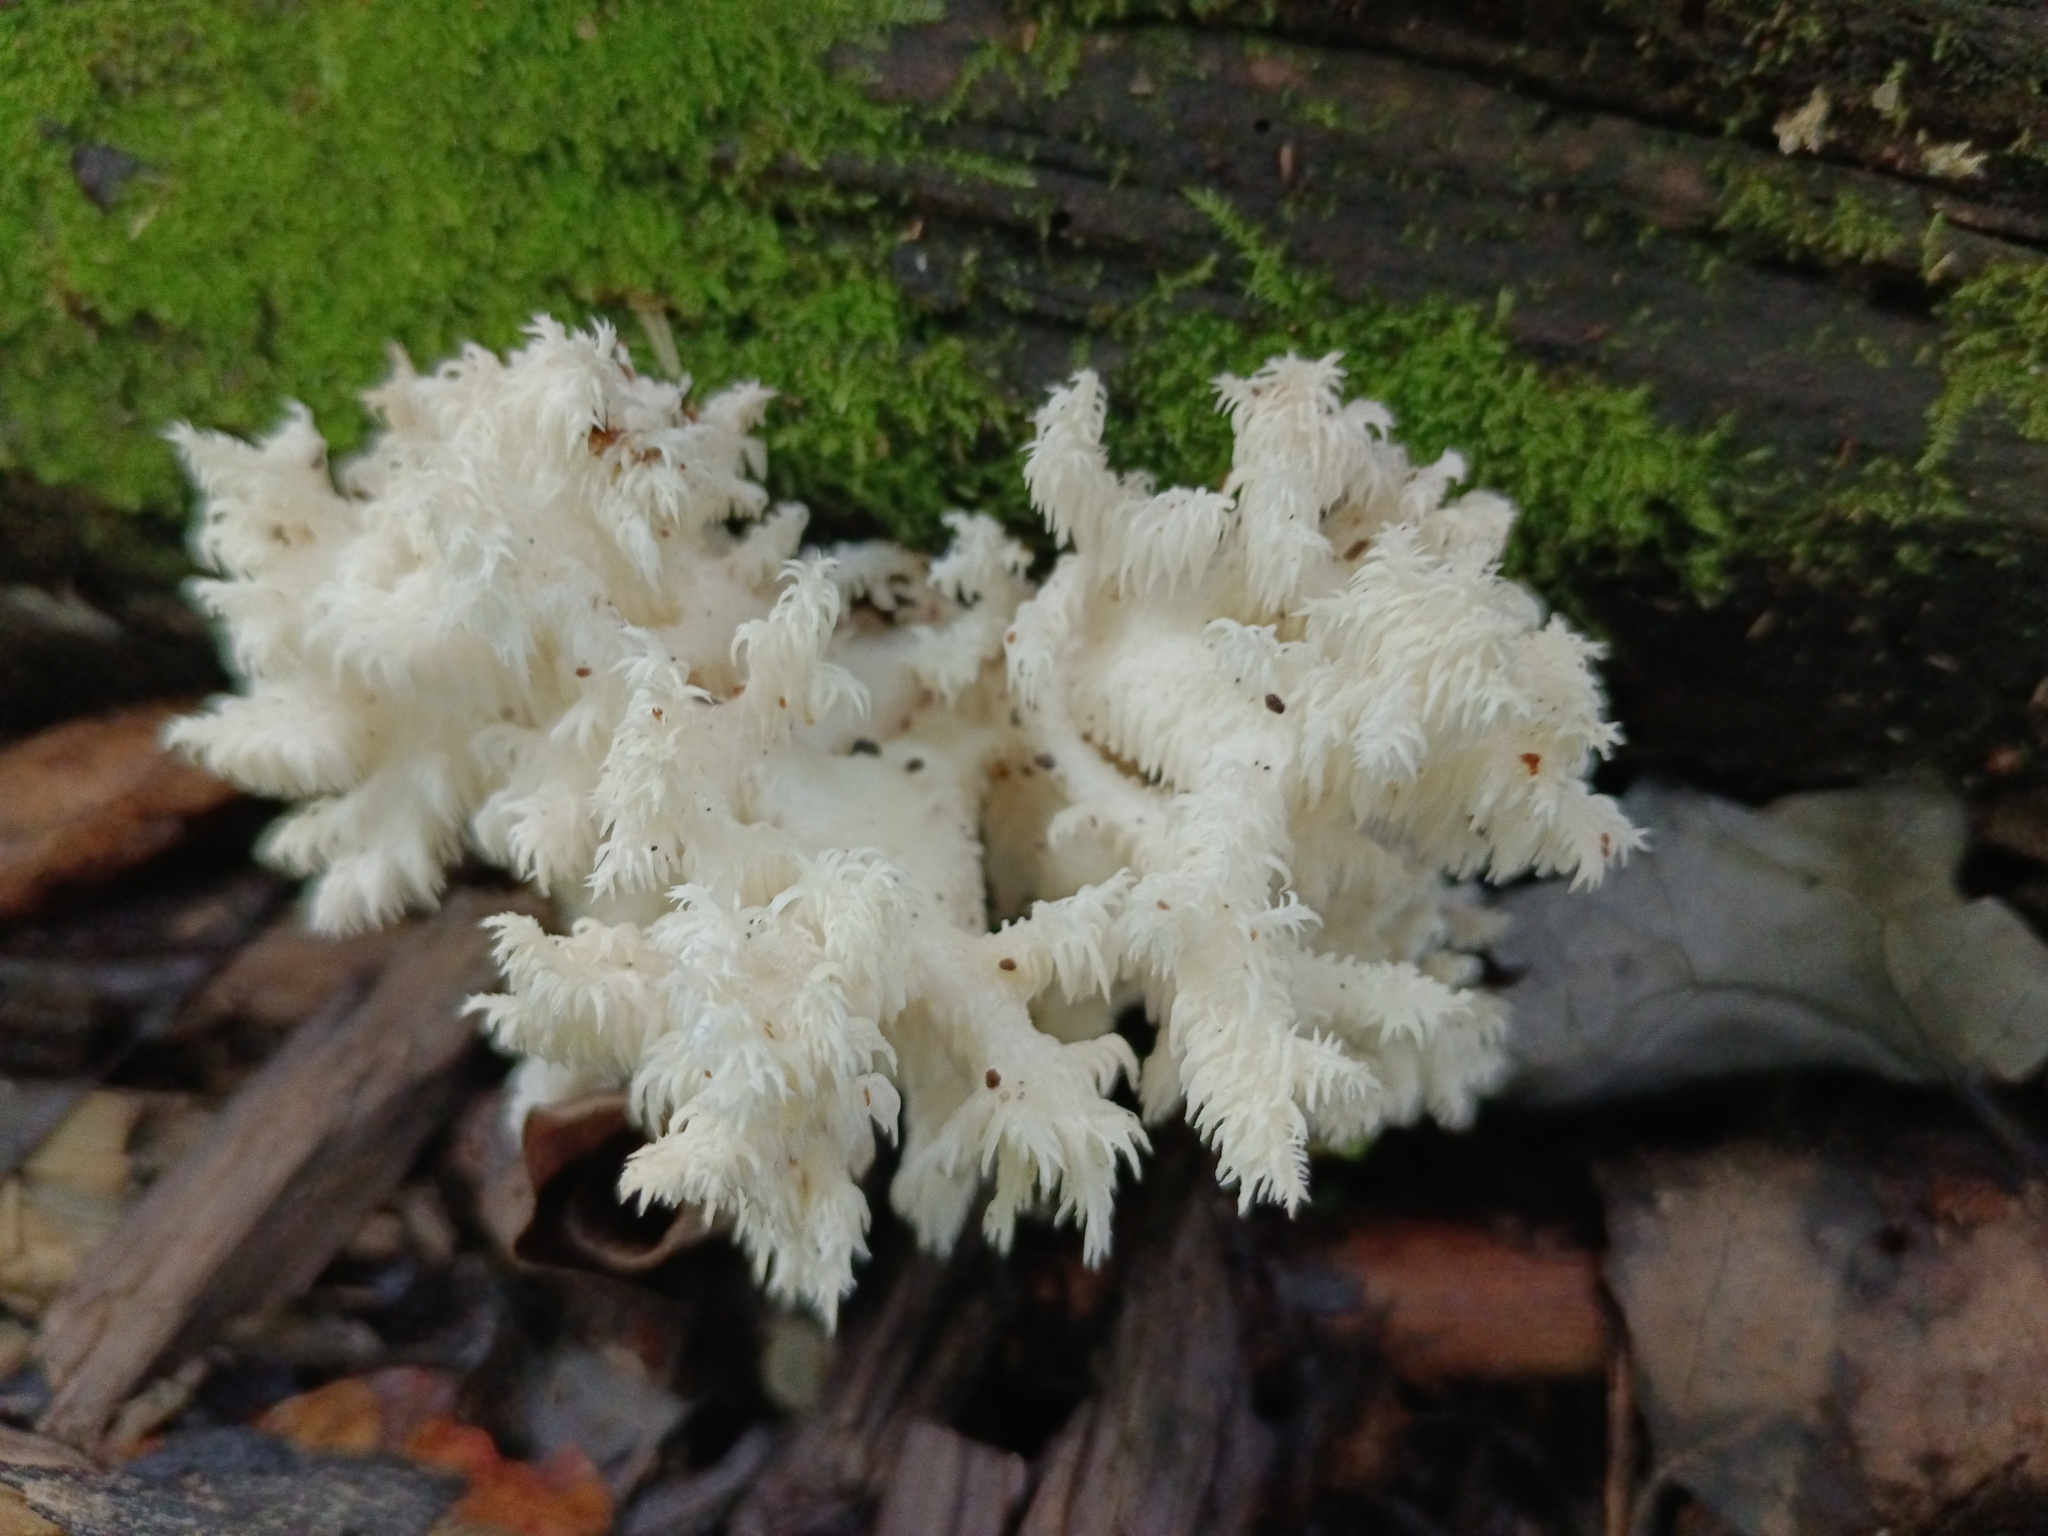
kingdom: Fungi
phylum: Basidiomycota
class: Agaricomycetes
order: Russulales
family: Hericiaceae
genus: Hericium
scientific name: Hericium coralloides
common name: Coral tooth
